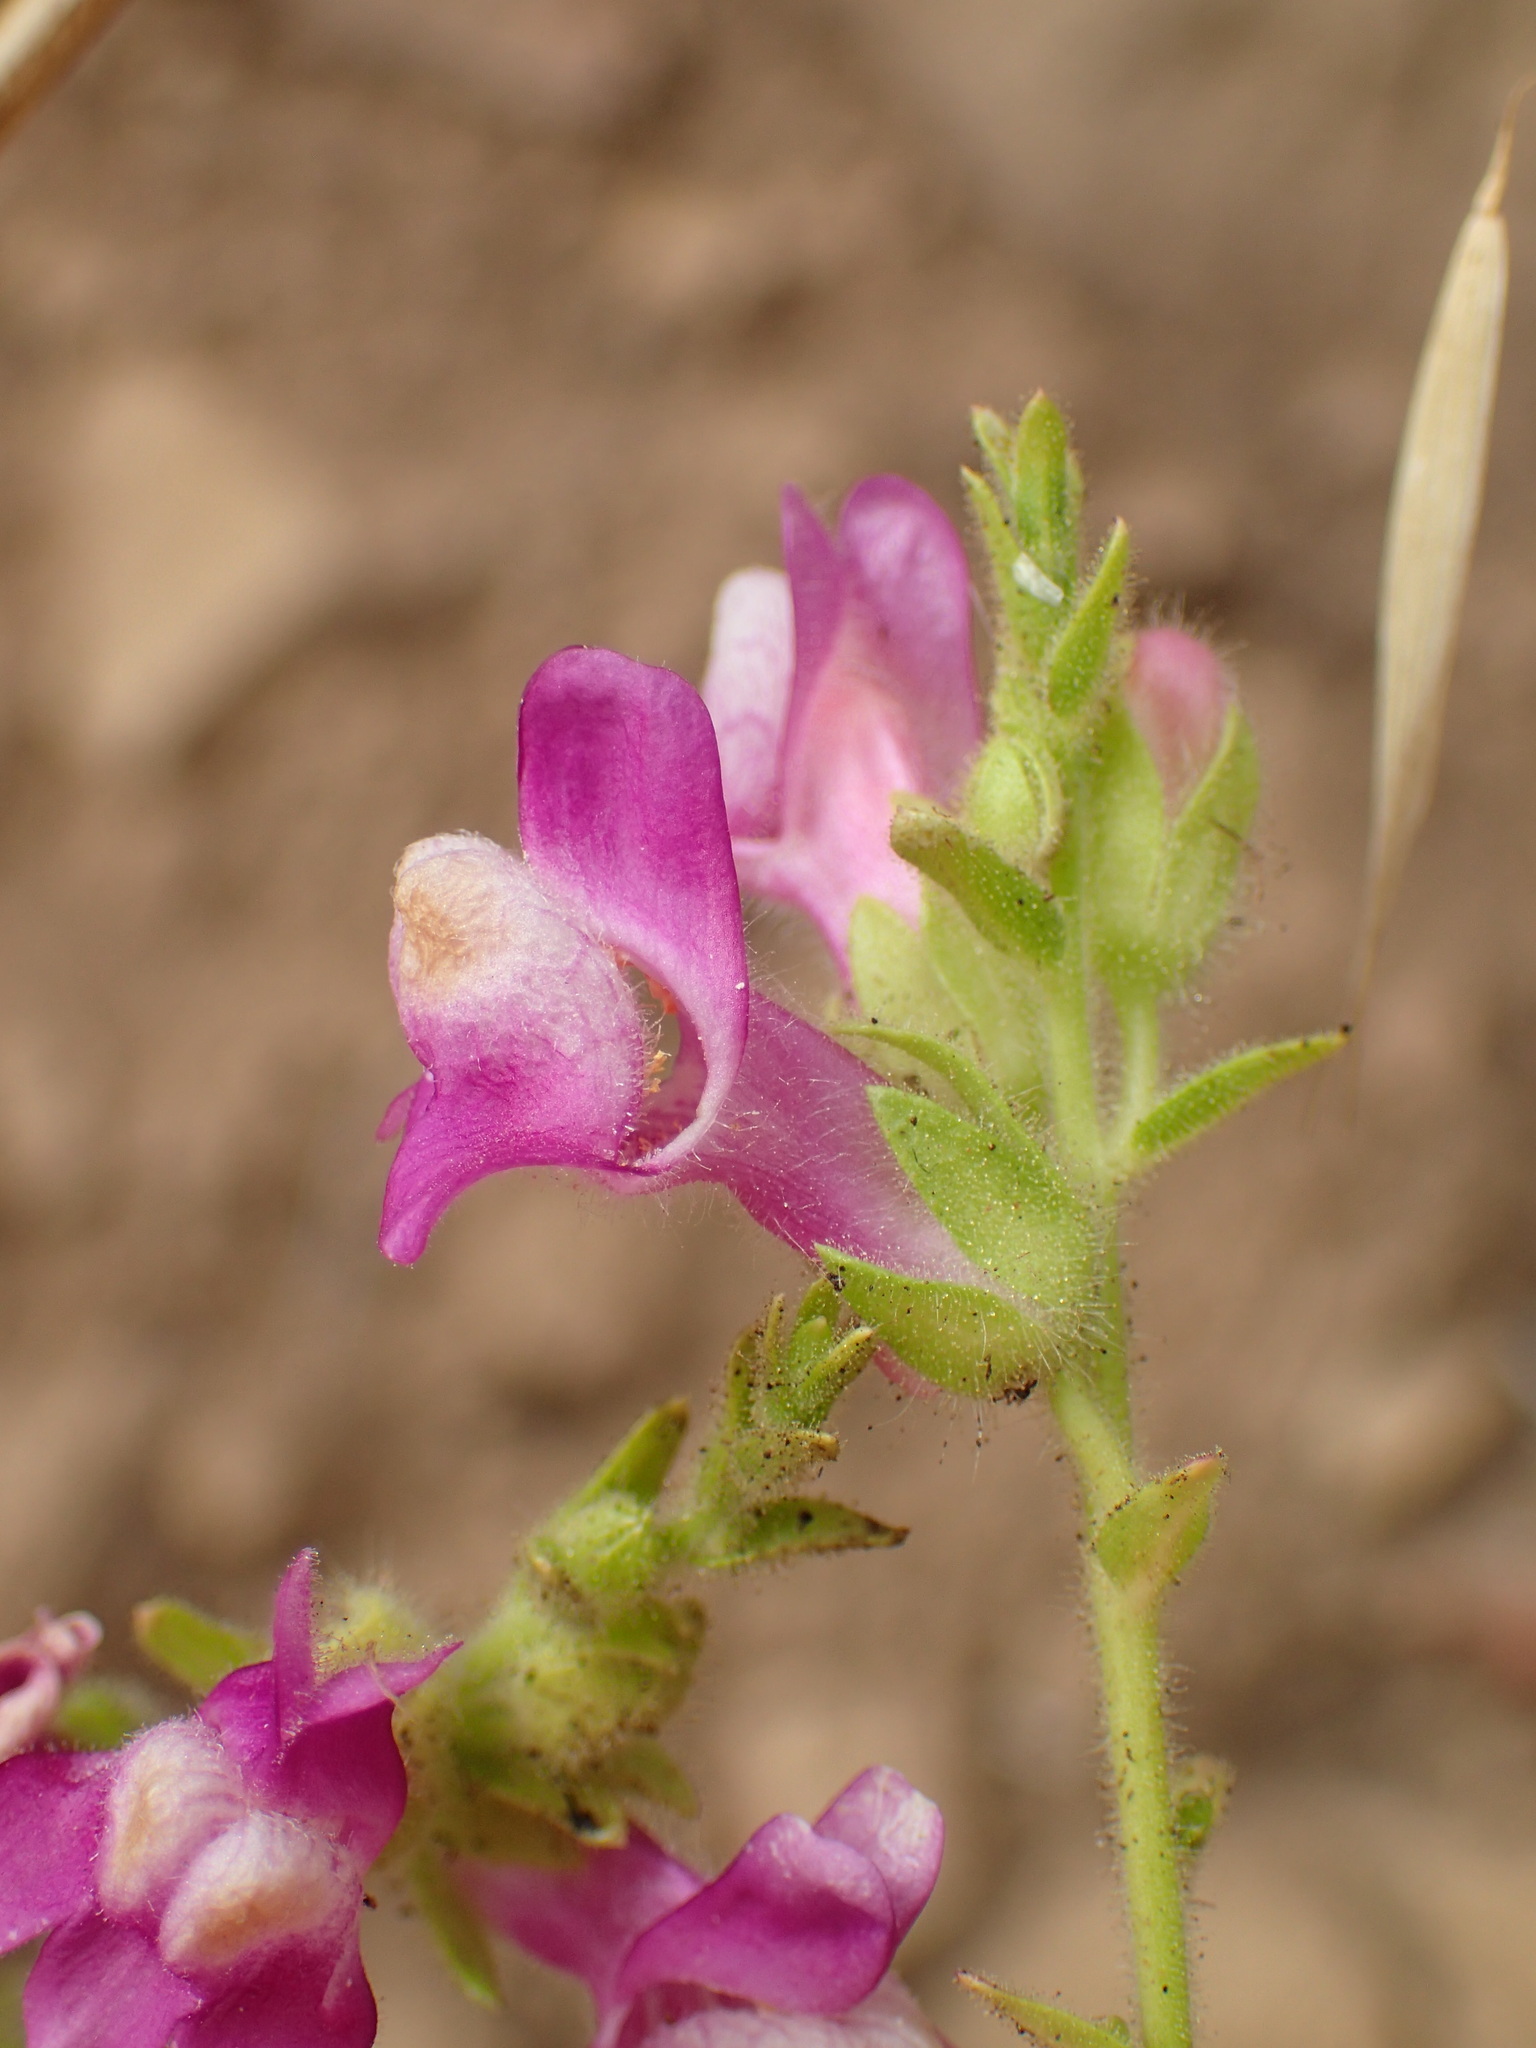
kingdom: Plantae
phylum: Tracheophyta
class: Magnoliopsida
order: Lamiales
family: Plantaginaceae
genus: Sairocarpus
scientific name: Sairocarpus multiflorus
